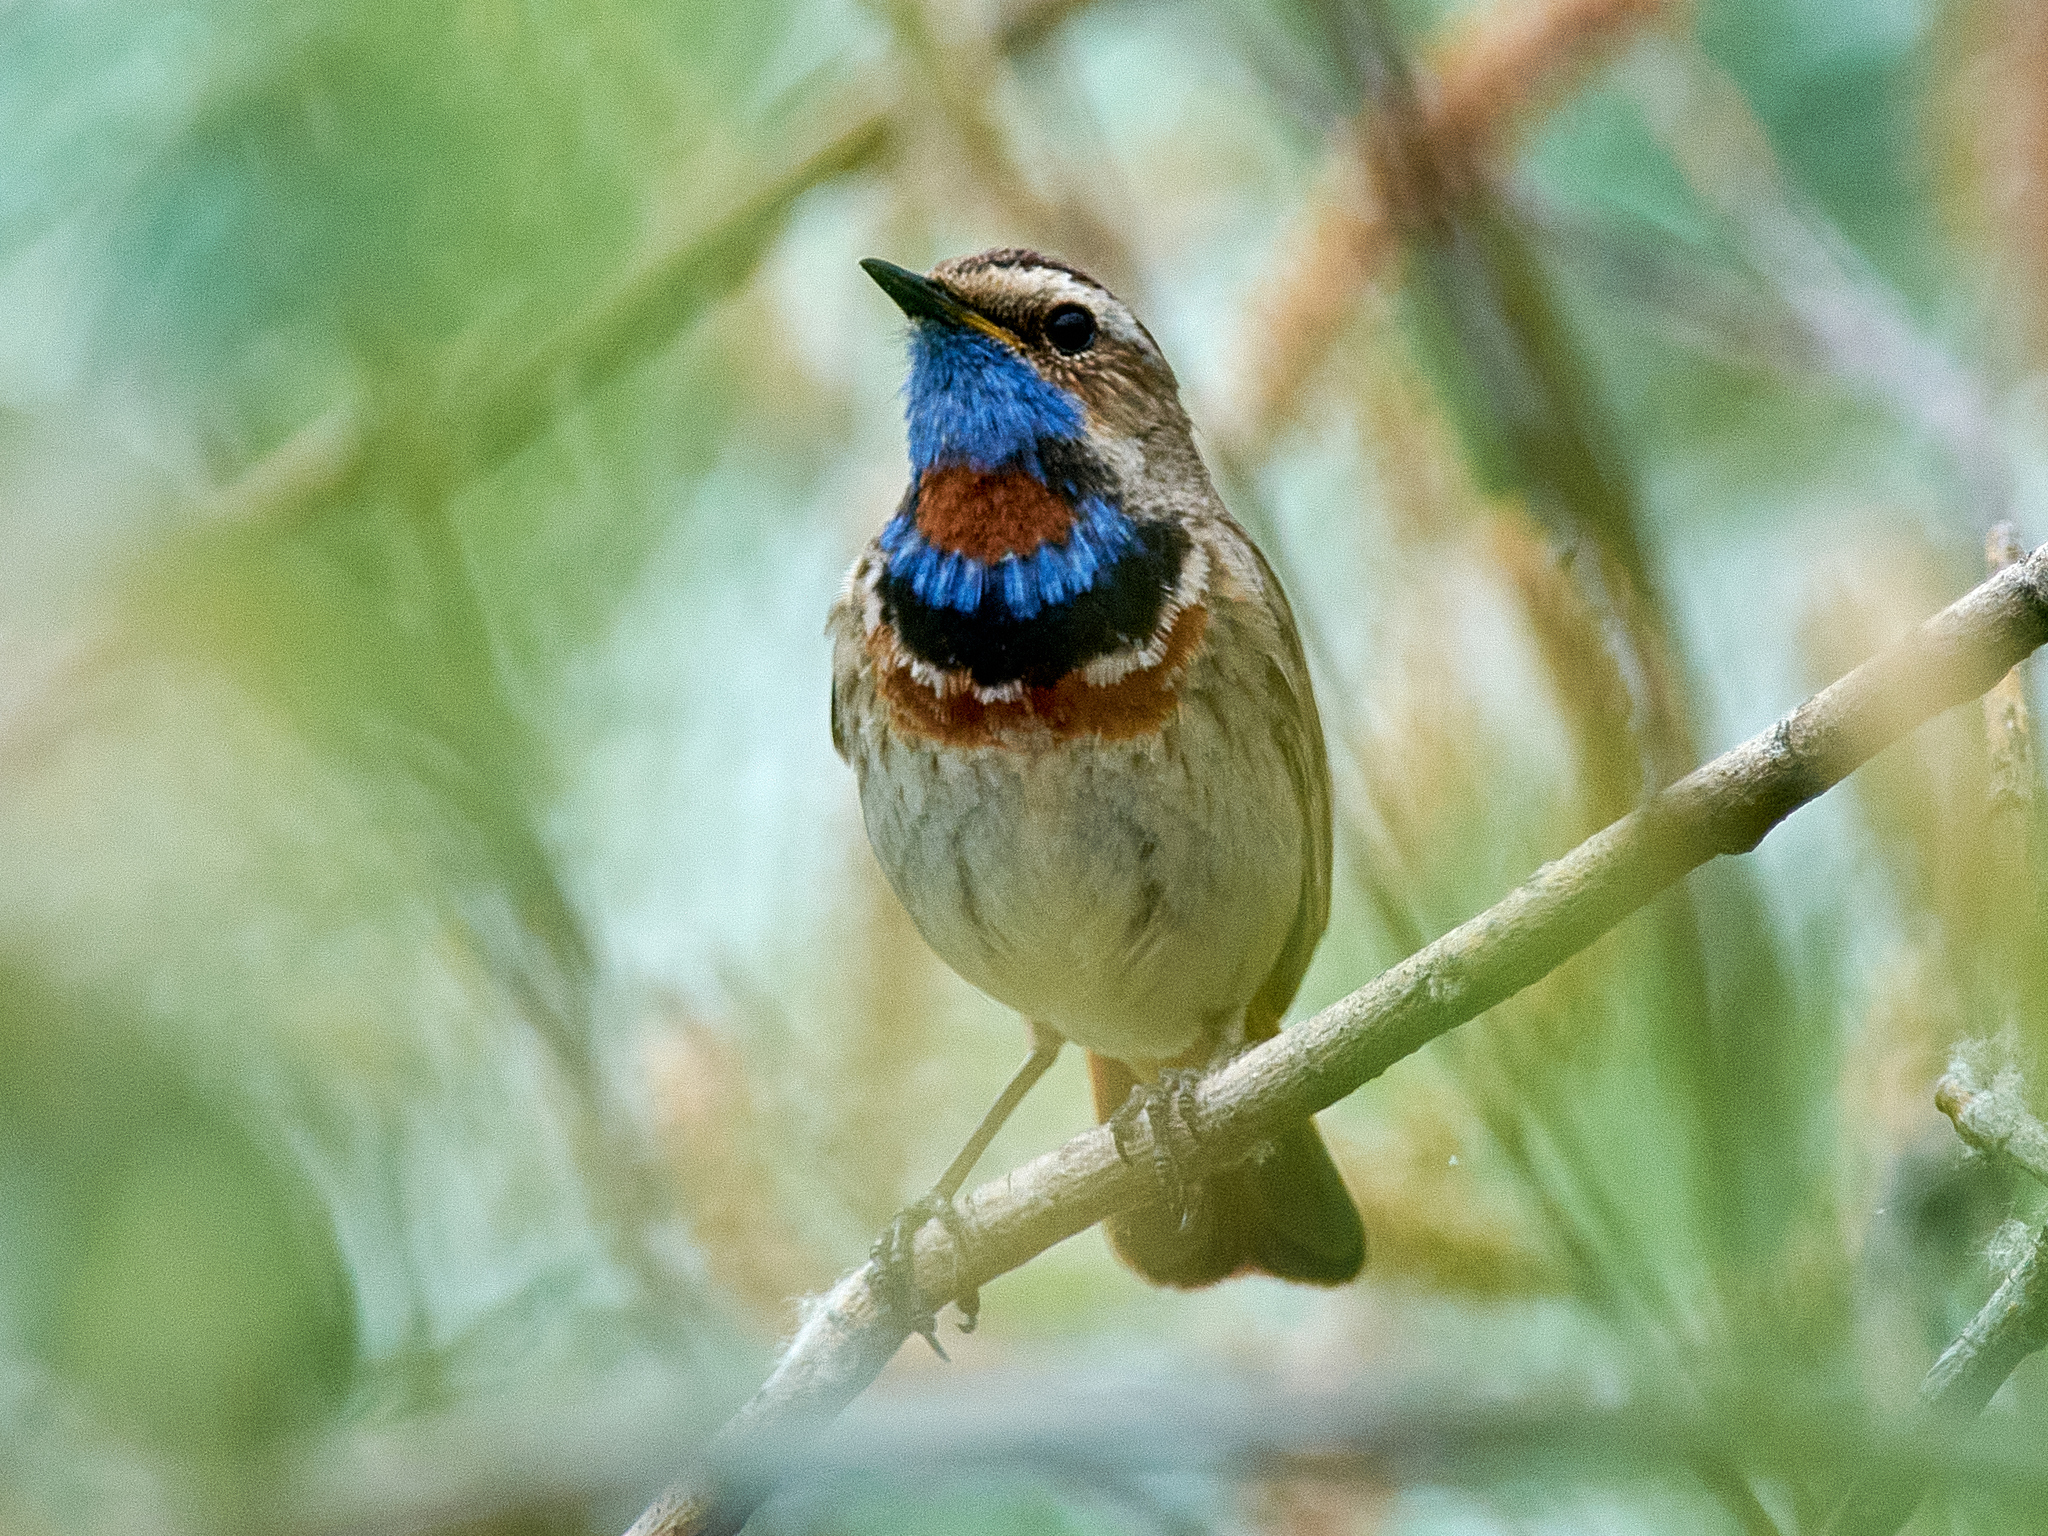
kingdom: Animalia
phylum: Chordata
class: Aves
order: Passeriformes
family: Muscicapidae
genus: Luscinia
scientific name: Luscinia svecica
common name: Bluethroat
